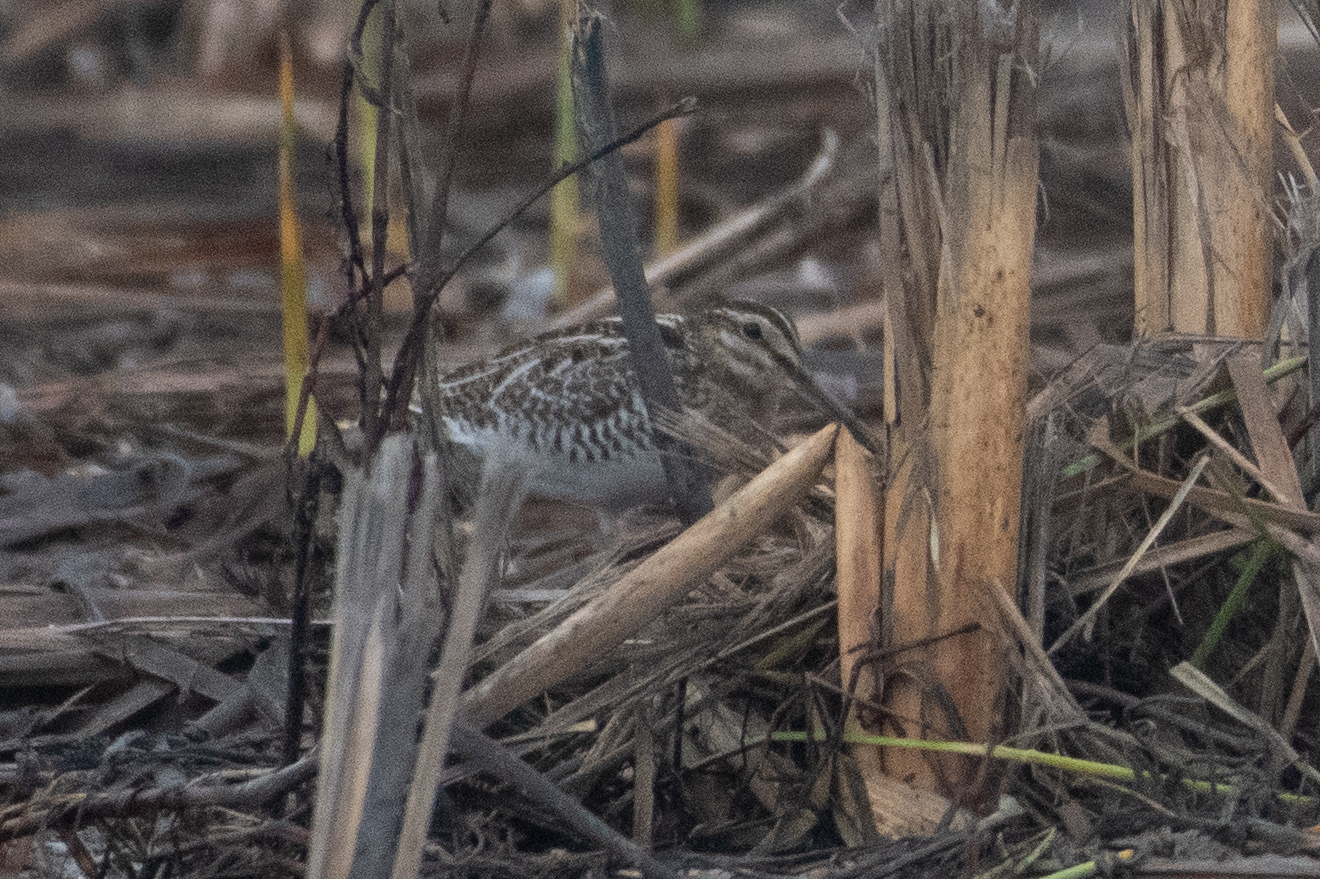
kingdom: Animalia
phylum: Chordata
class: Aves
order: Charadriiformes
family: Scolopacidae
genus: Gallinago
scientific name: Gallinago delicata
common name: Wilson's snipe
